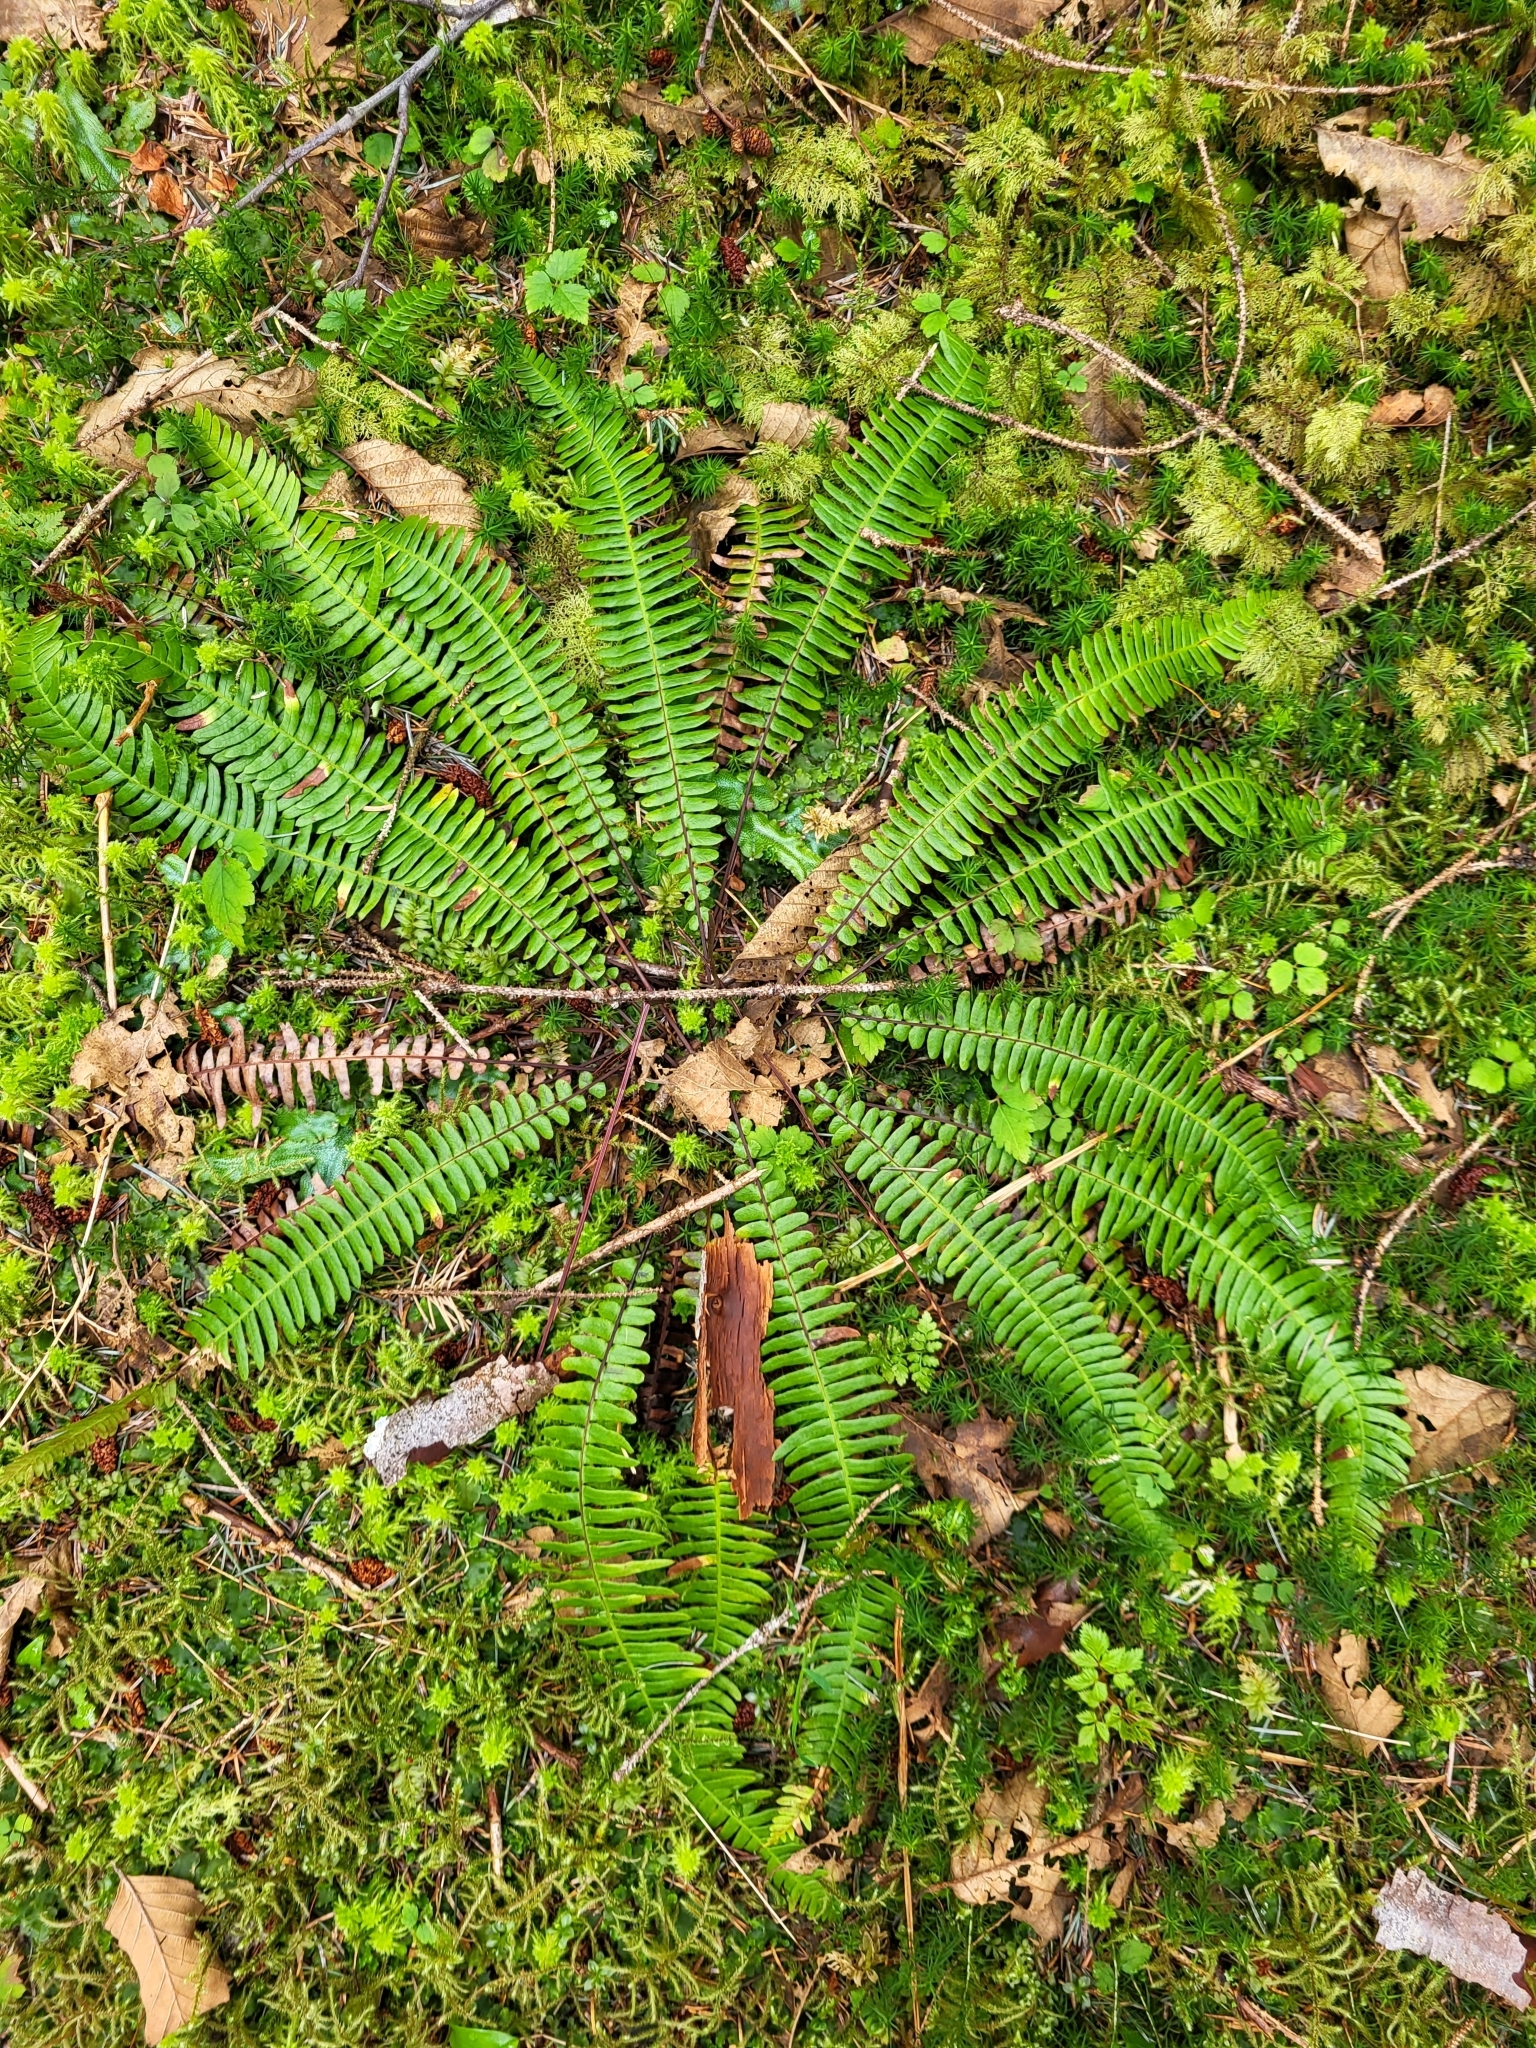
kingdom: Plantae
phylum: Tracheophyta
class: Polypodiopsida
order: Polypodiales
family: Blechnaceae
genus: Struthiopteris
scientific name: Struthiopteris spicant
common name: Deer fern
